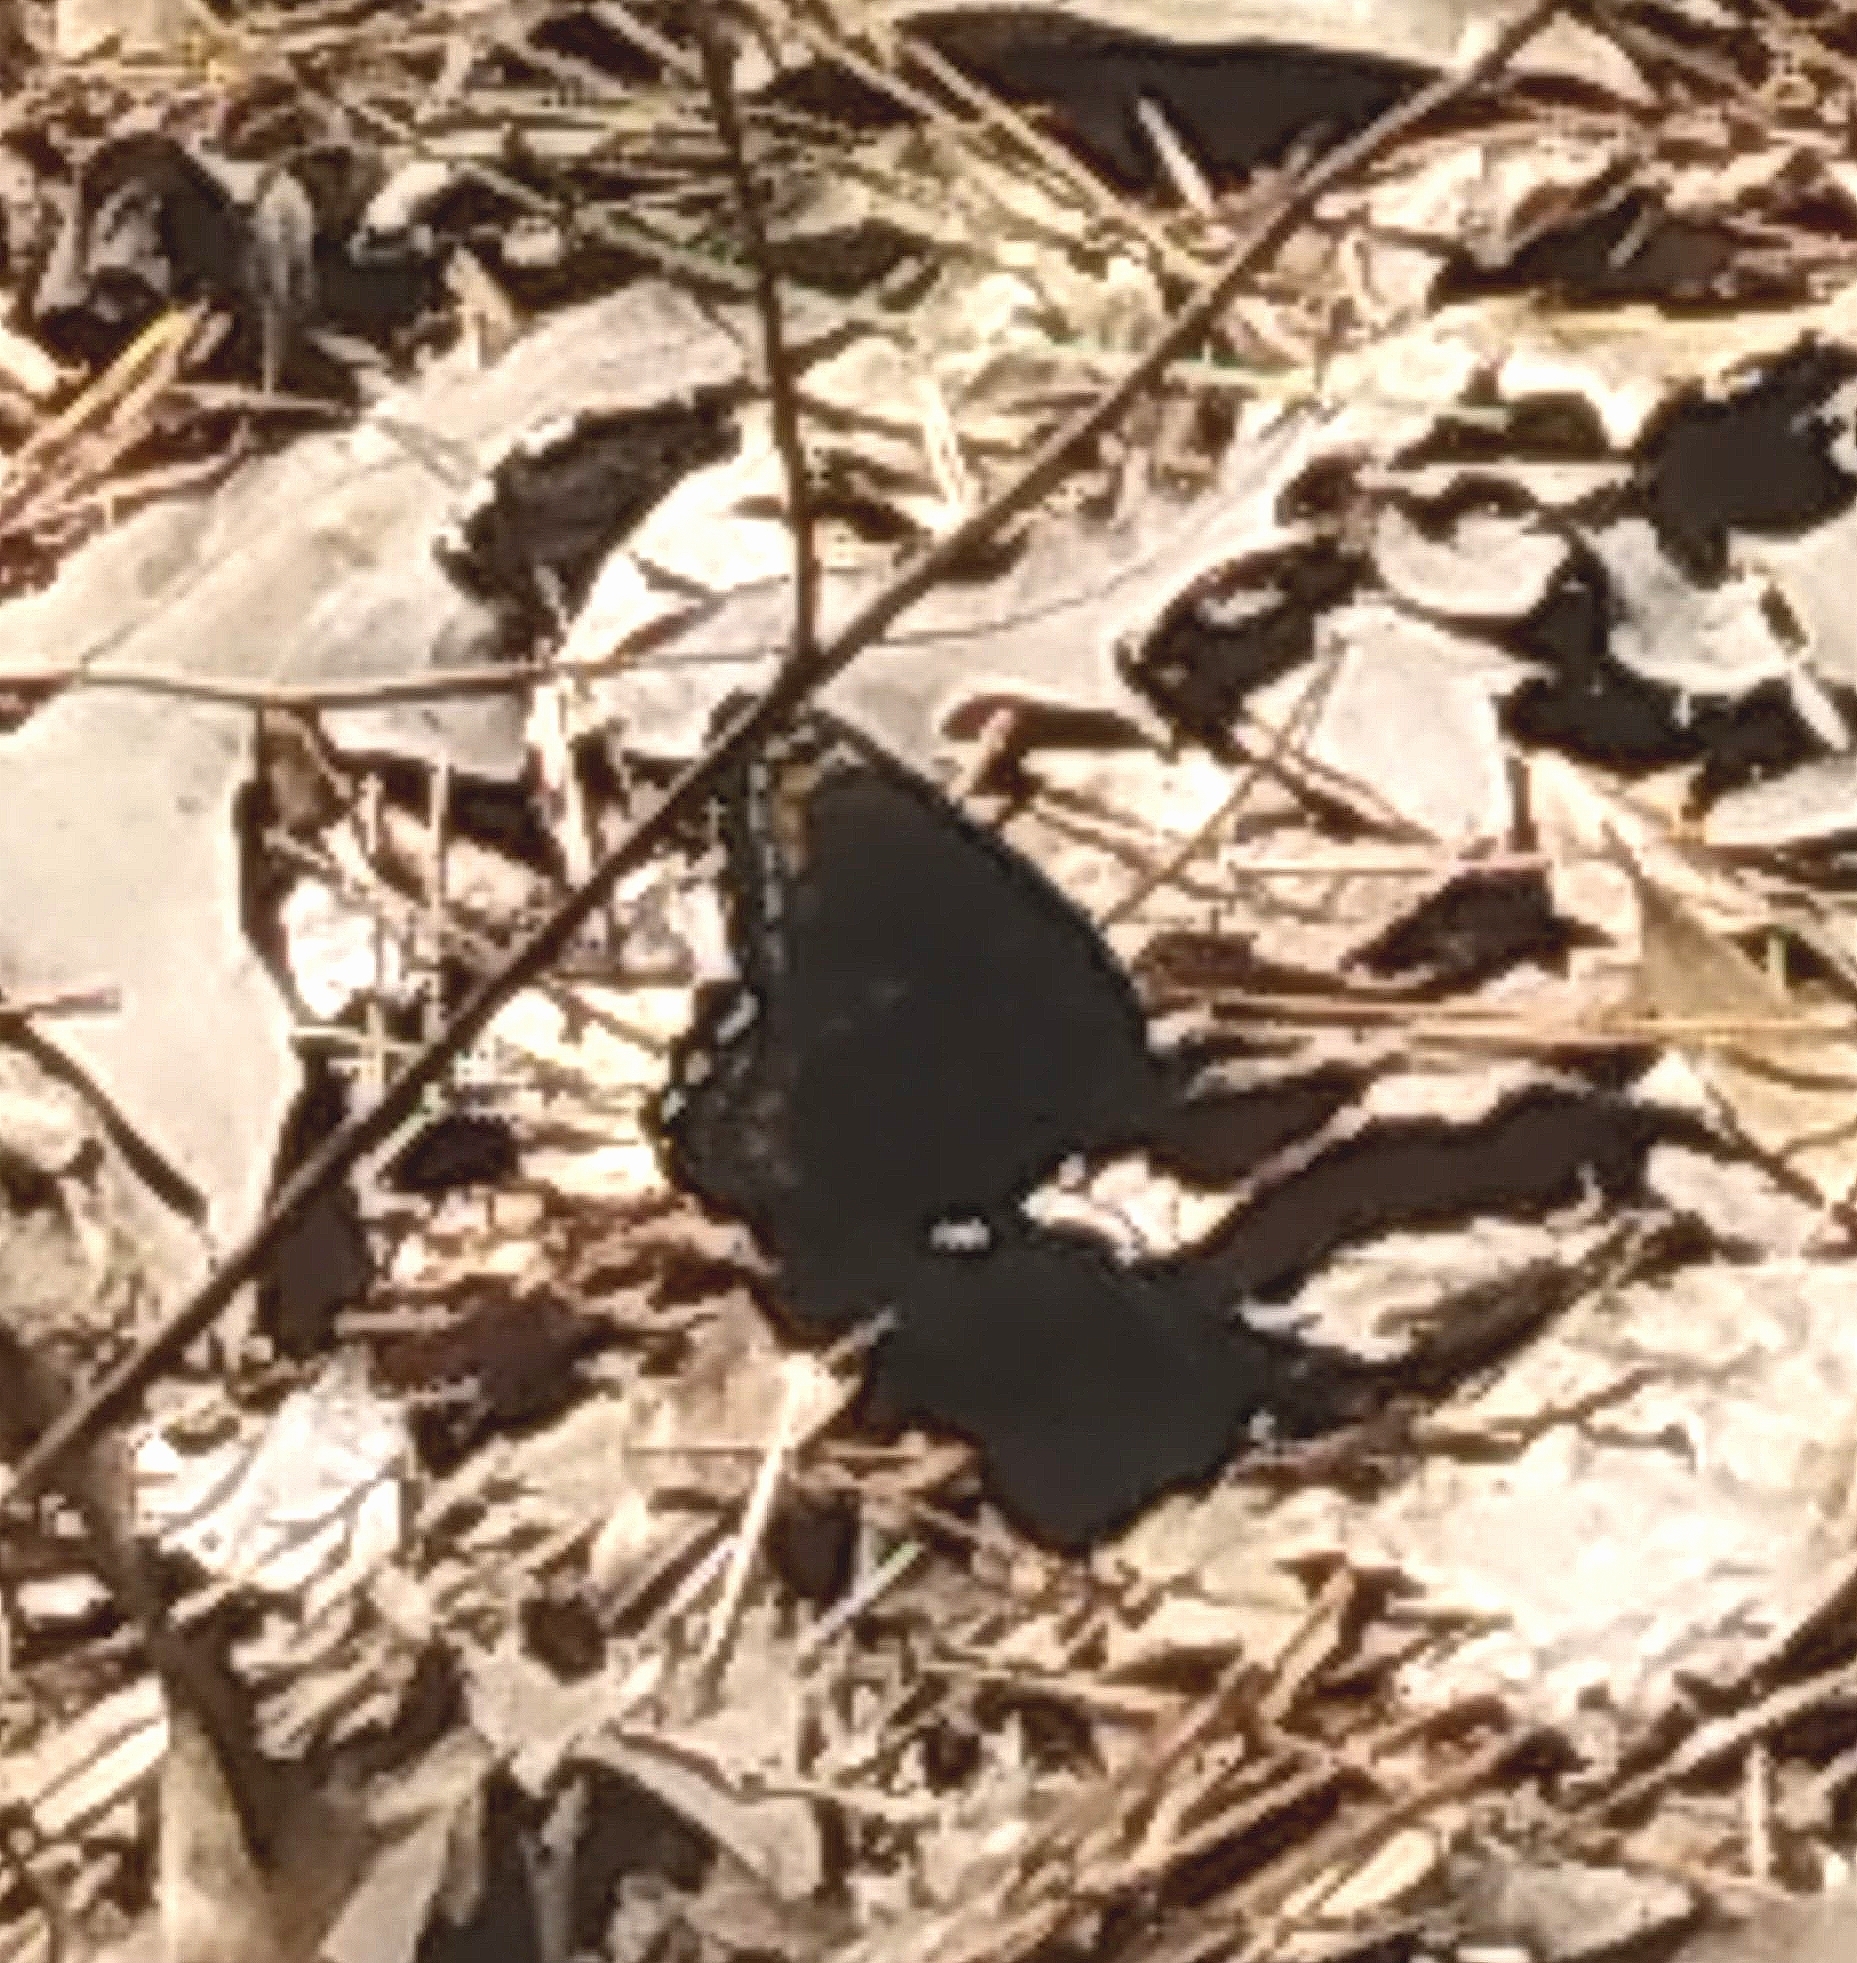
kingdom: Animalia
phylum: Arthropoda
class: Insecta
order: Lepidoptera
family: Nymphalidae
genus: Limenitis
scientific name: Limenitis astyanax
